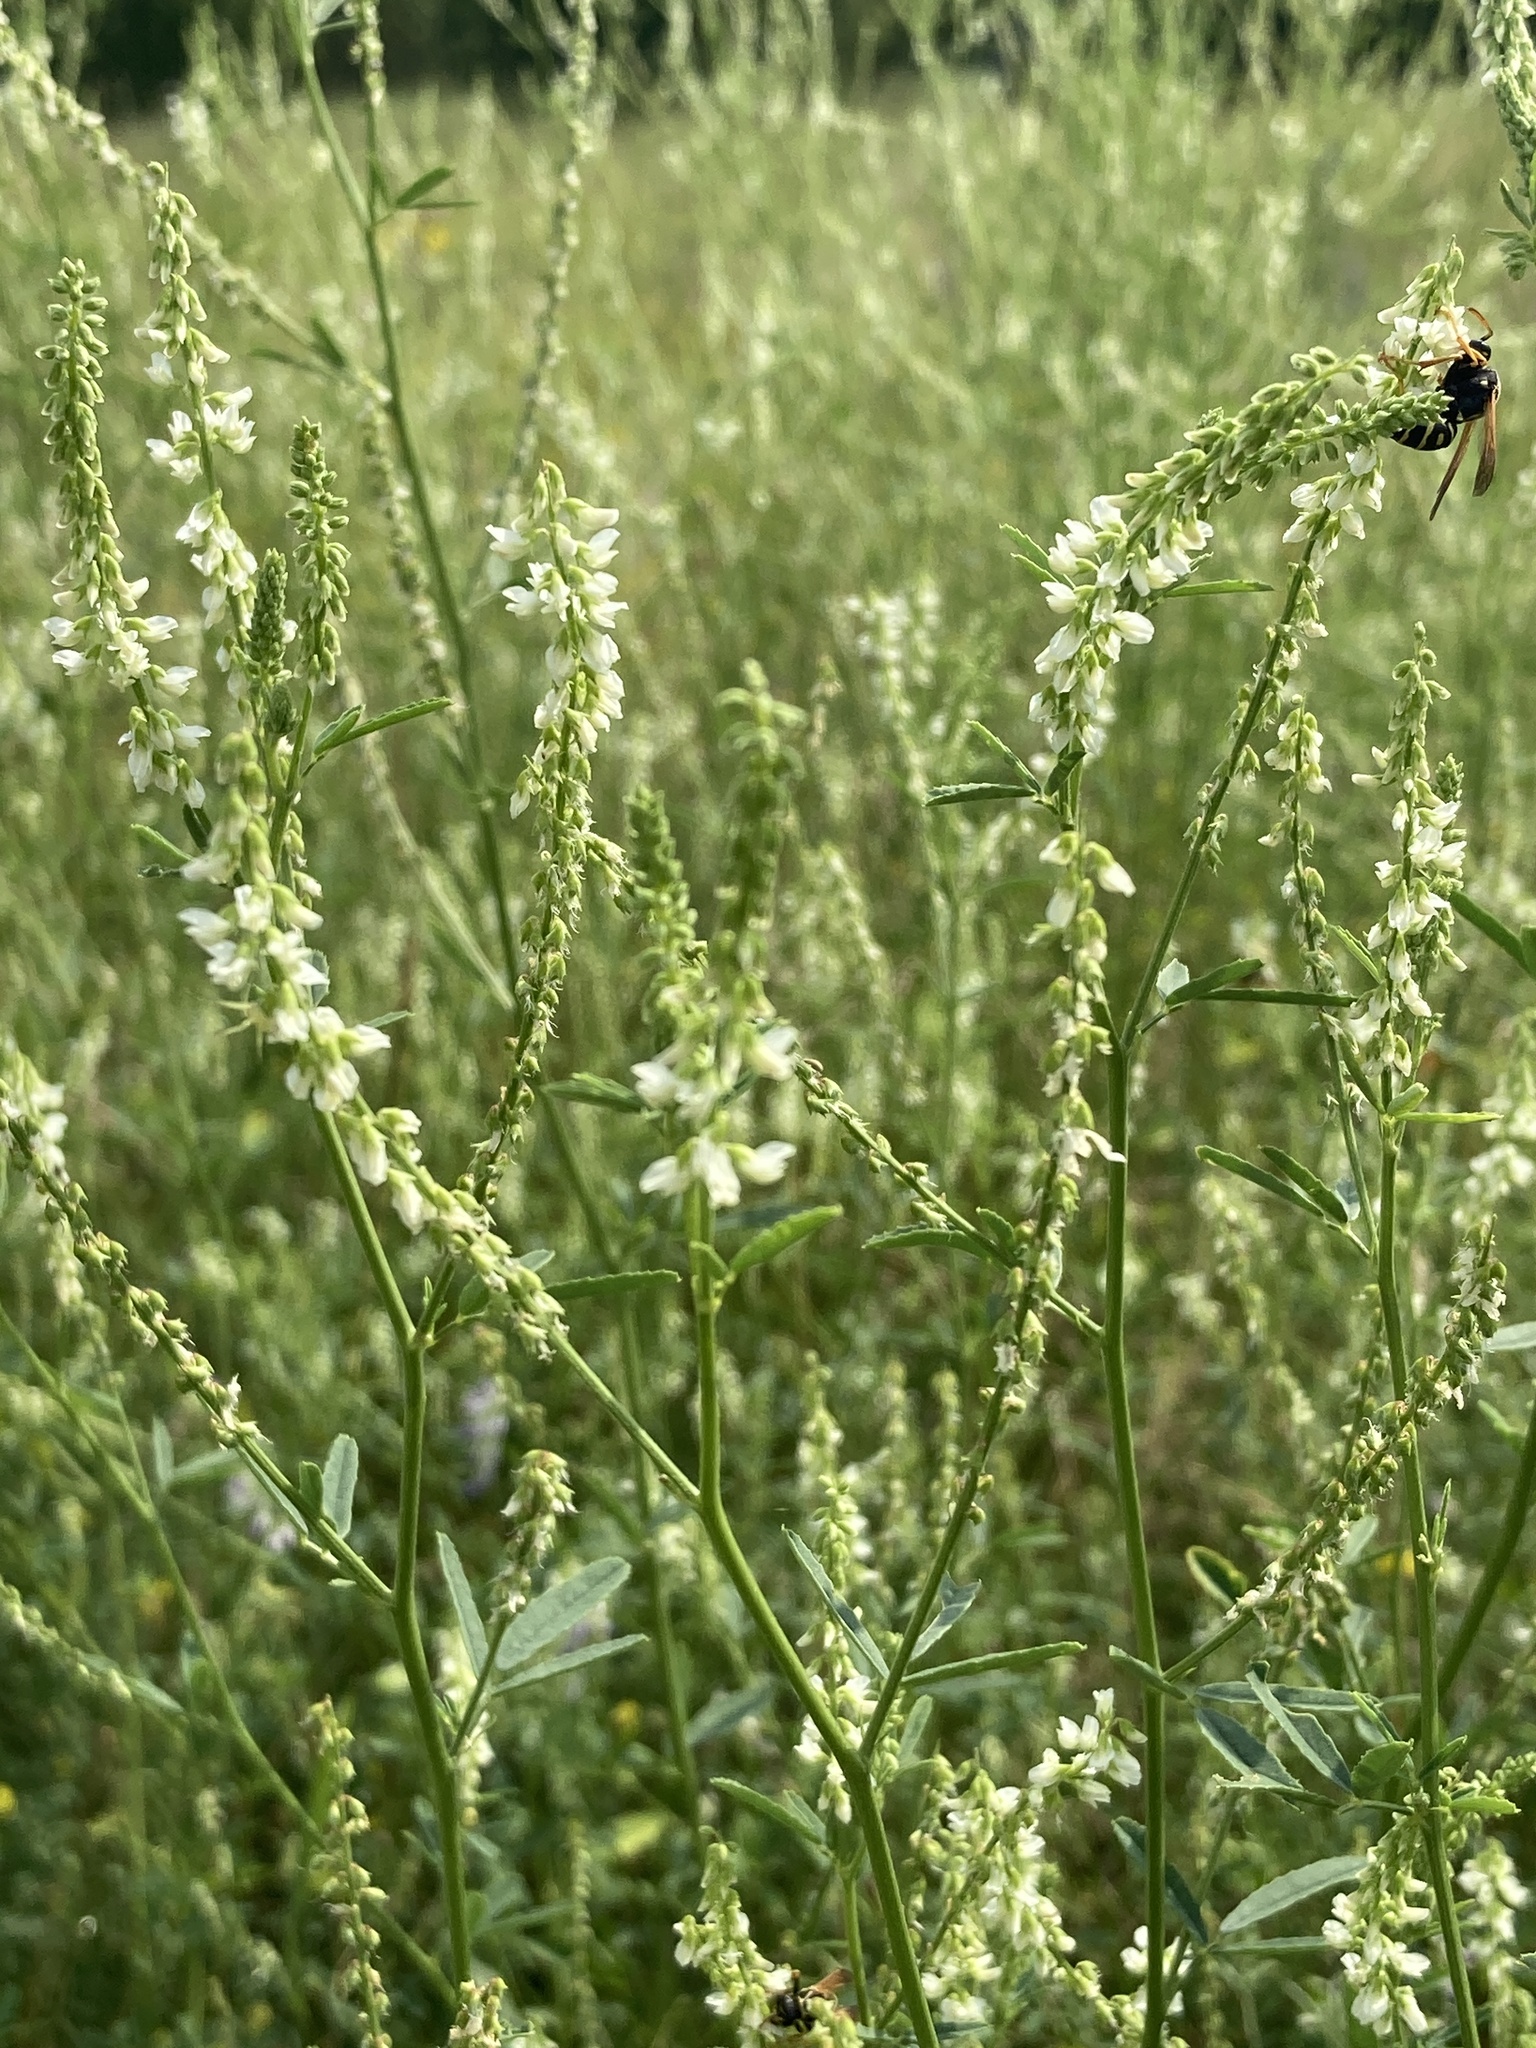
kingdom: Plantae
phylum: Tracheophyta
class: Magnoliopsida
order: Fabales
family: Fabaceae
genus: Melilotus
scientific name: Melilotus albus
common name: White melilot
